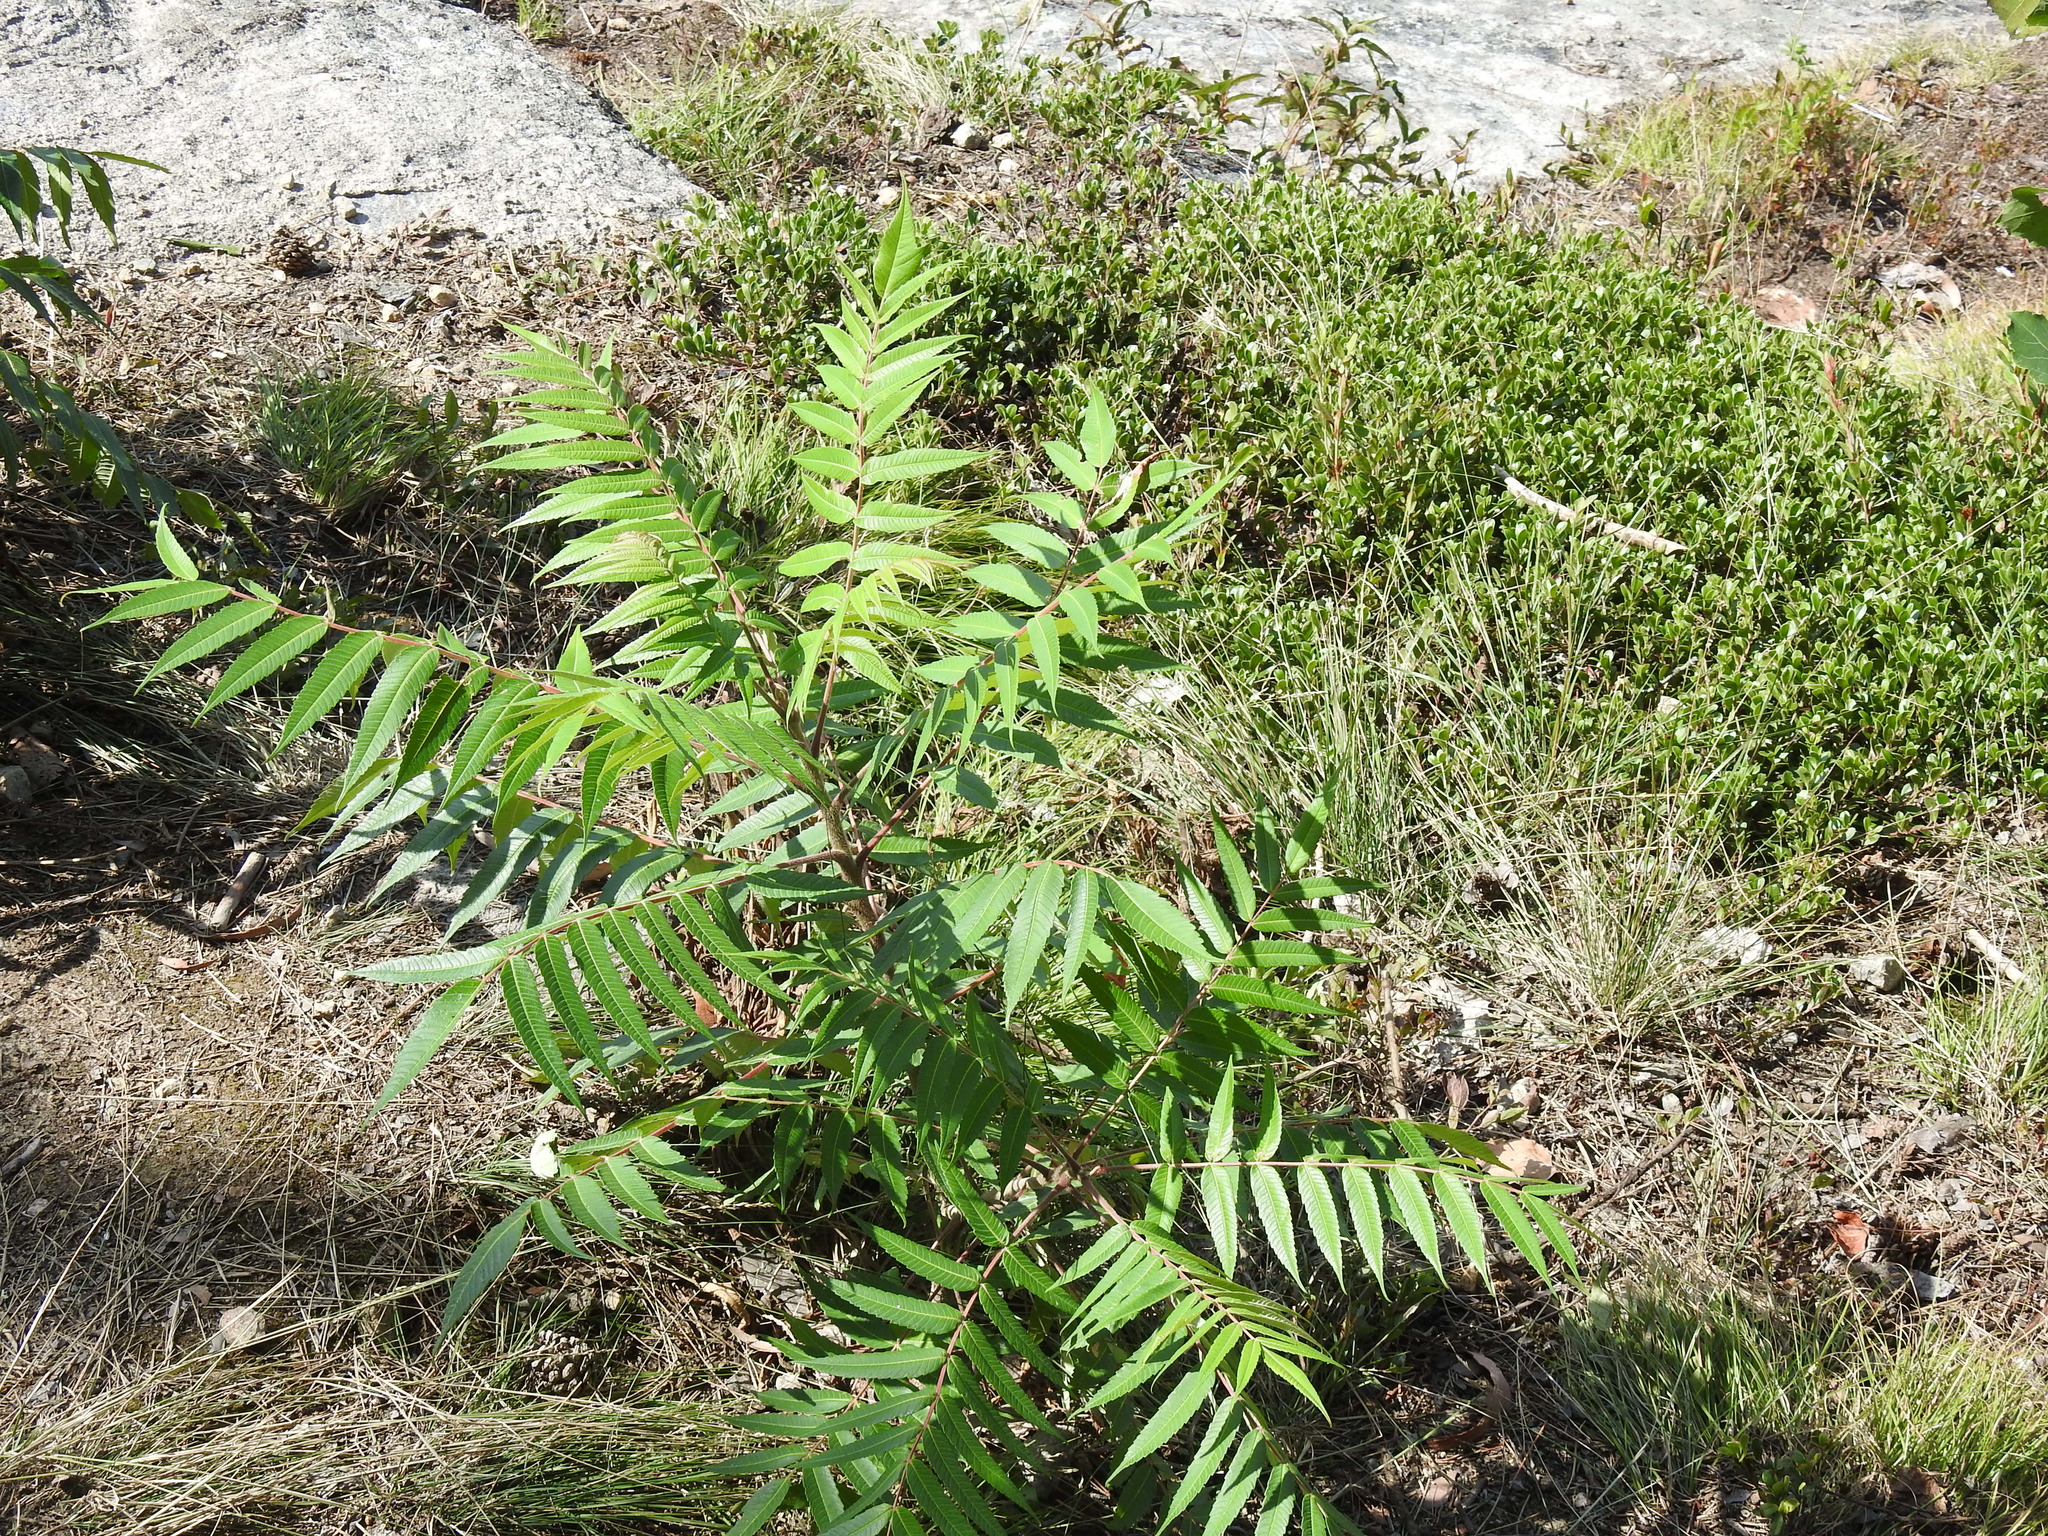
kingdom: Plantae
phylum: Tracheophyta
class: Magnoliopsida
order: Sapindales
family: Anacardiaceae
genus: Rhus
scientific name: Rhus typhina
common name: Staghorn sumac
